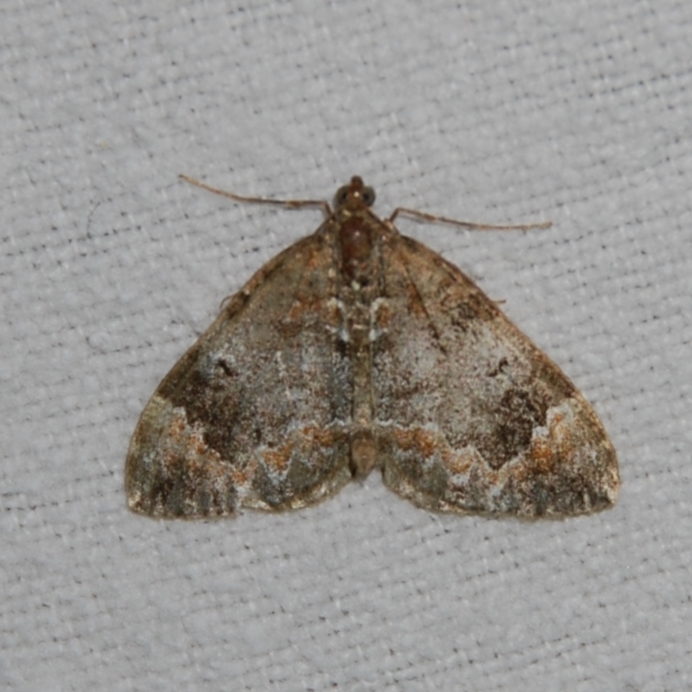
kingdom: Animalia
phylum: Arthropoda
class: Insecta
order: Lepidoptera
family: Geometridae
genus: Dysstroma
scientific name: Dysstroma truncata
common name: Common marbled carpet
